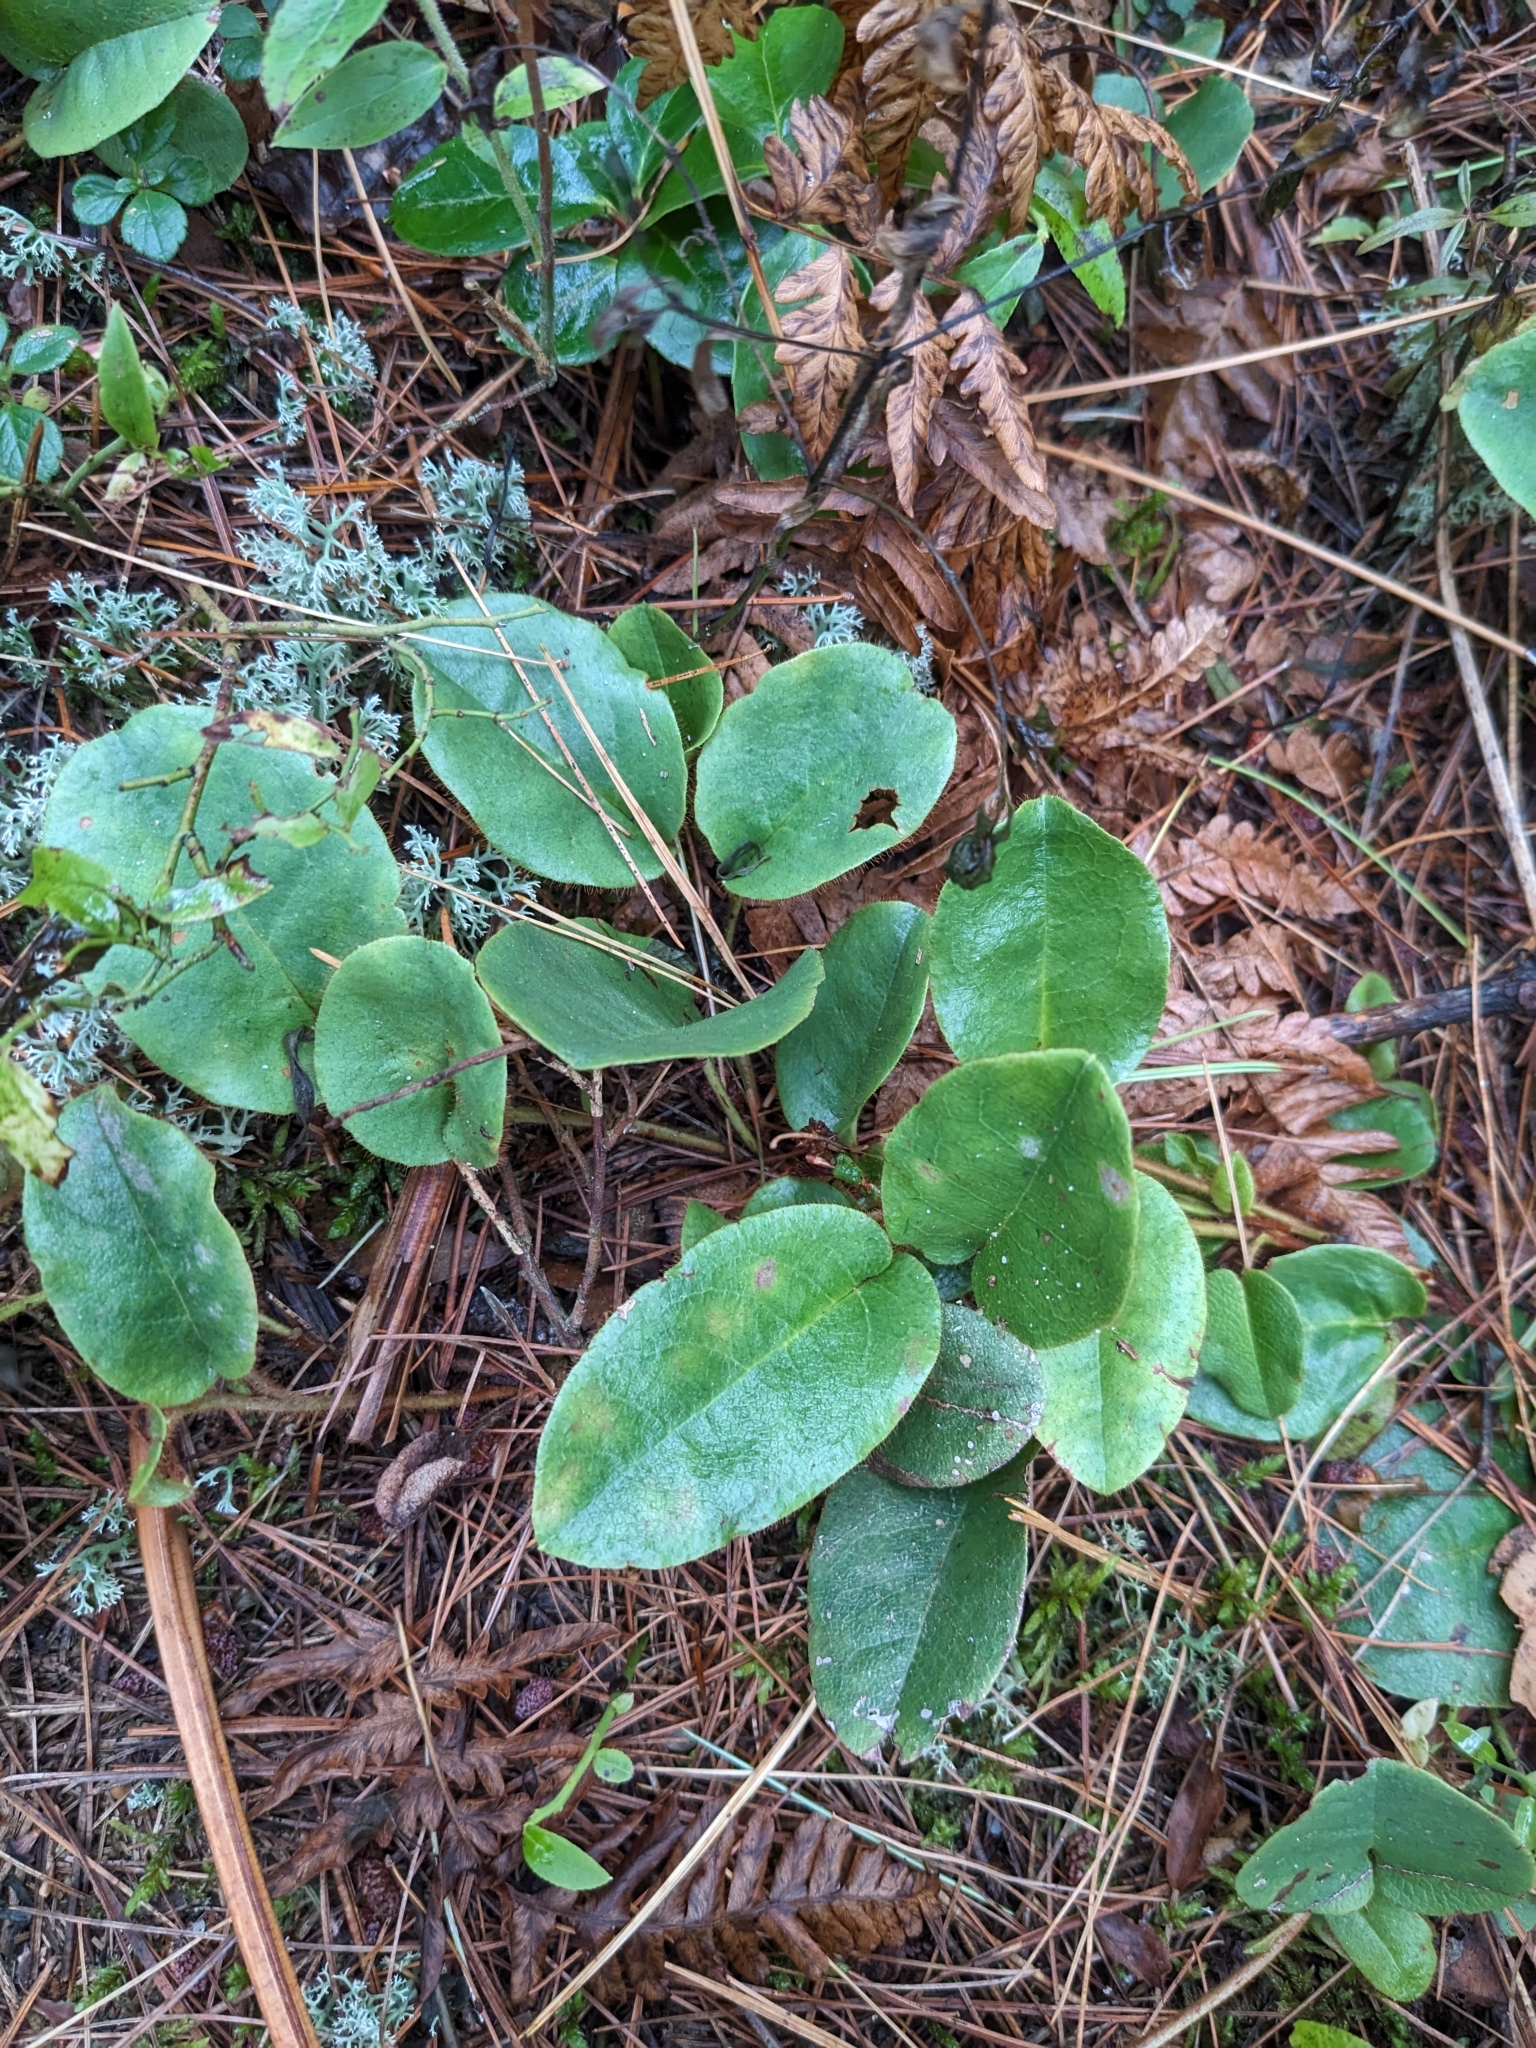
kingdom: Plantae
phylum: Tracheophyta
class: Magnoliopsida
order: Ericales
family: Ericaceae
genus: Epigaea
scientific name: Epigaea repens
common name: Gravelroot
